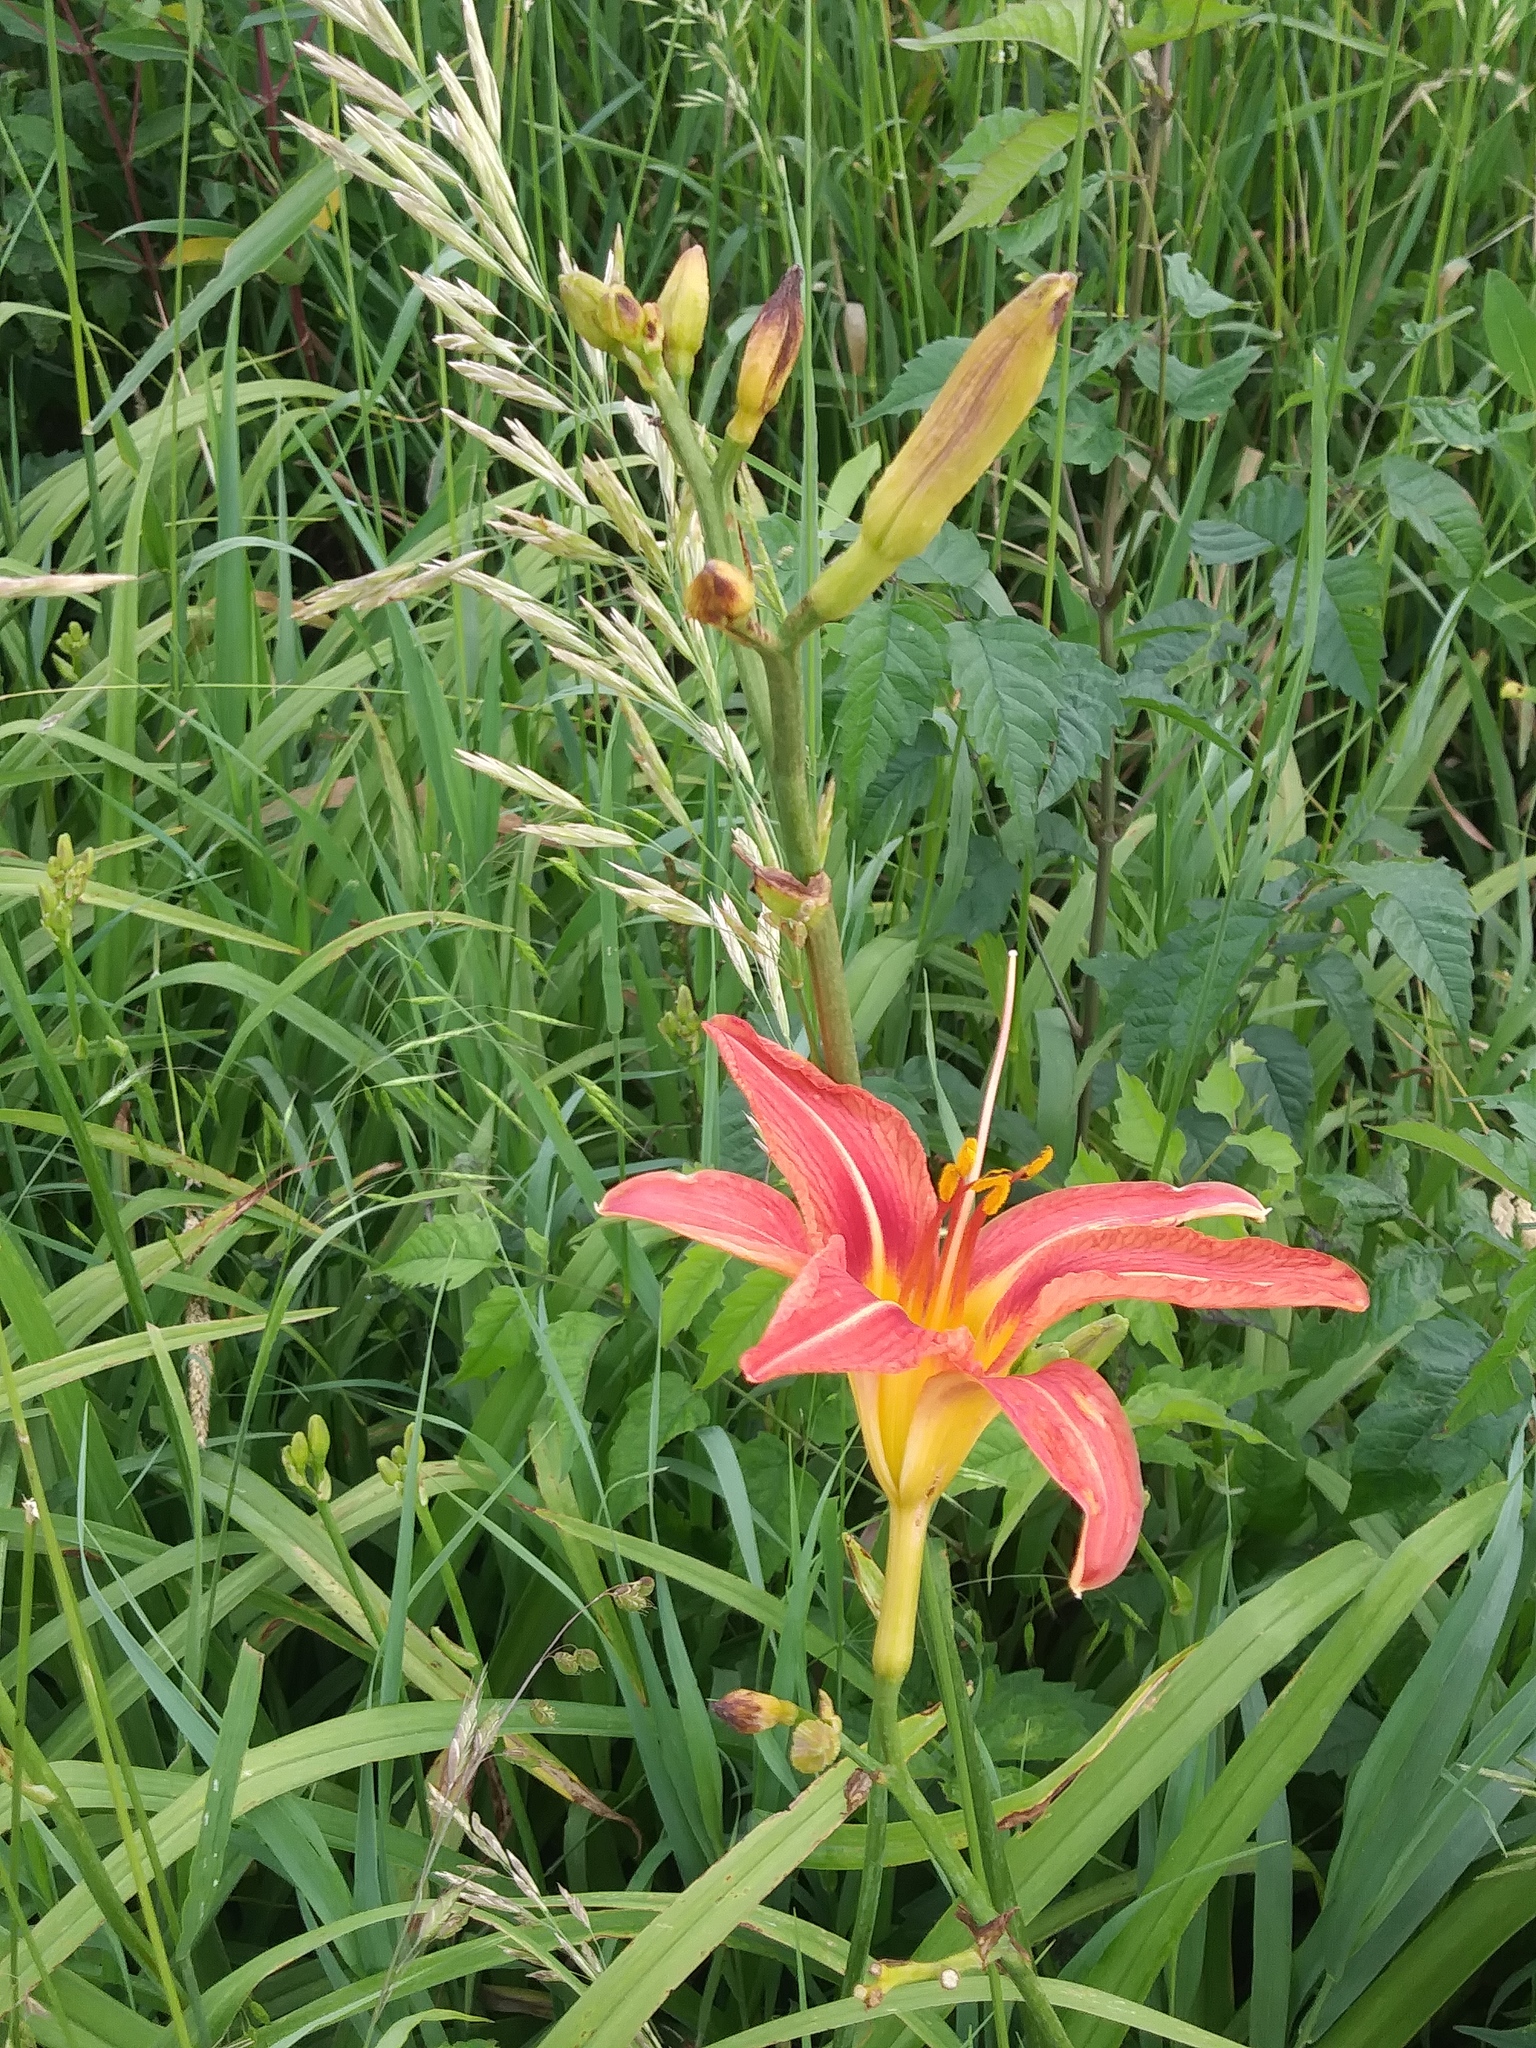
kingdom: Plantae
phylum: Tracheophyta
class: Liliopsida
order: Asparagales
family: Asphodelaceae
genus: Hemerocallis
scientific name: Hemerocallis fulva
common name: Orange day-lily
